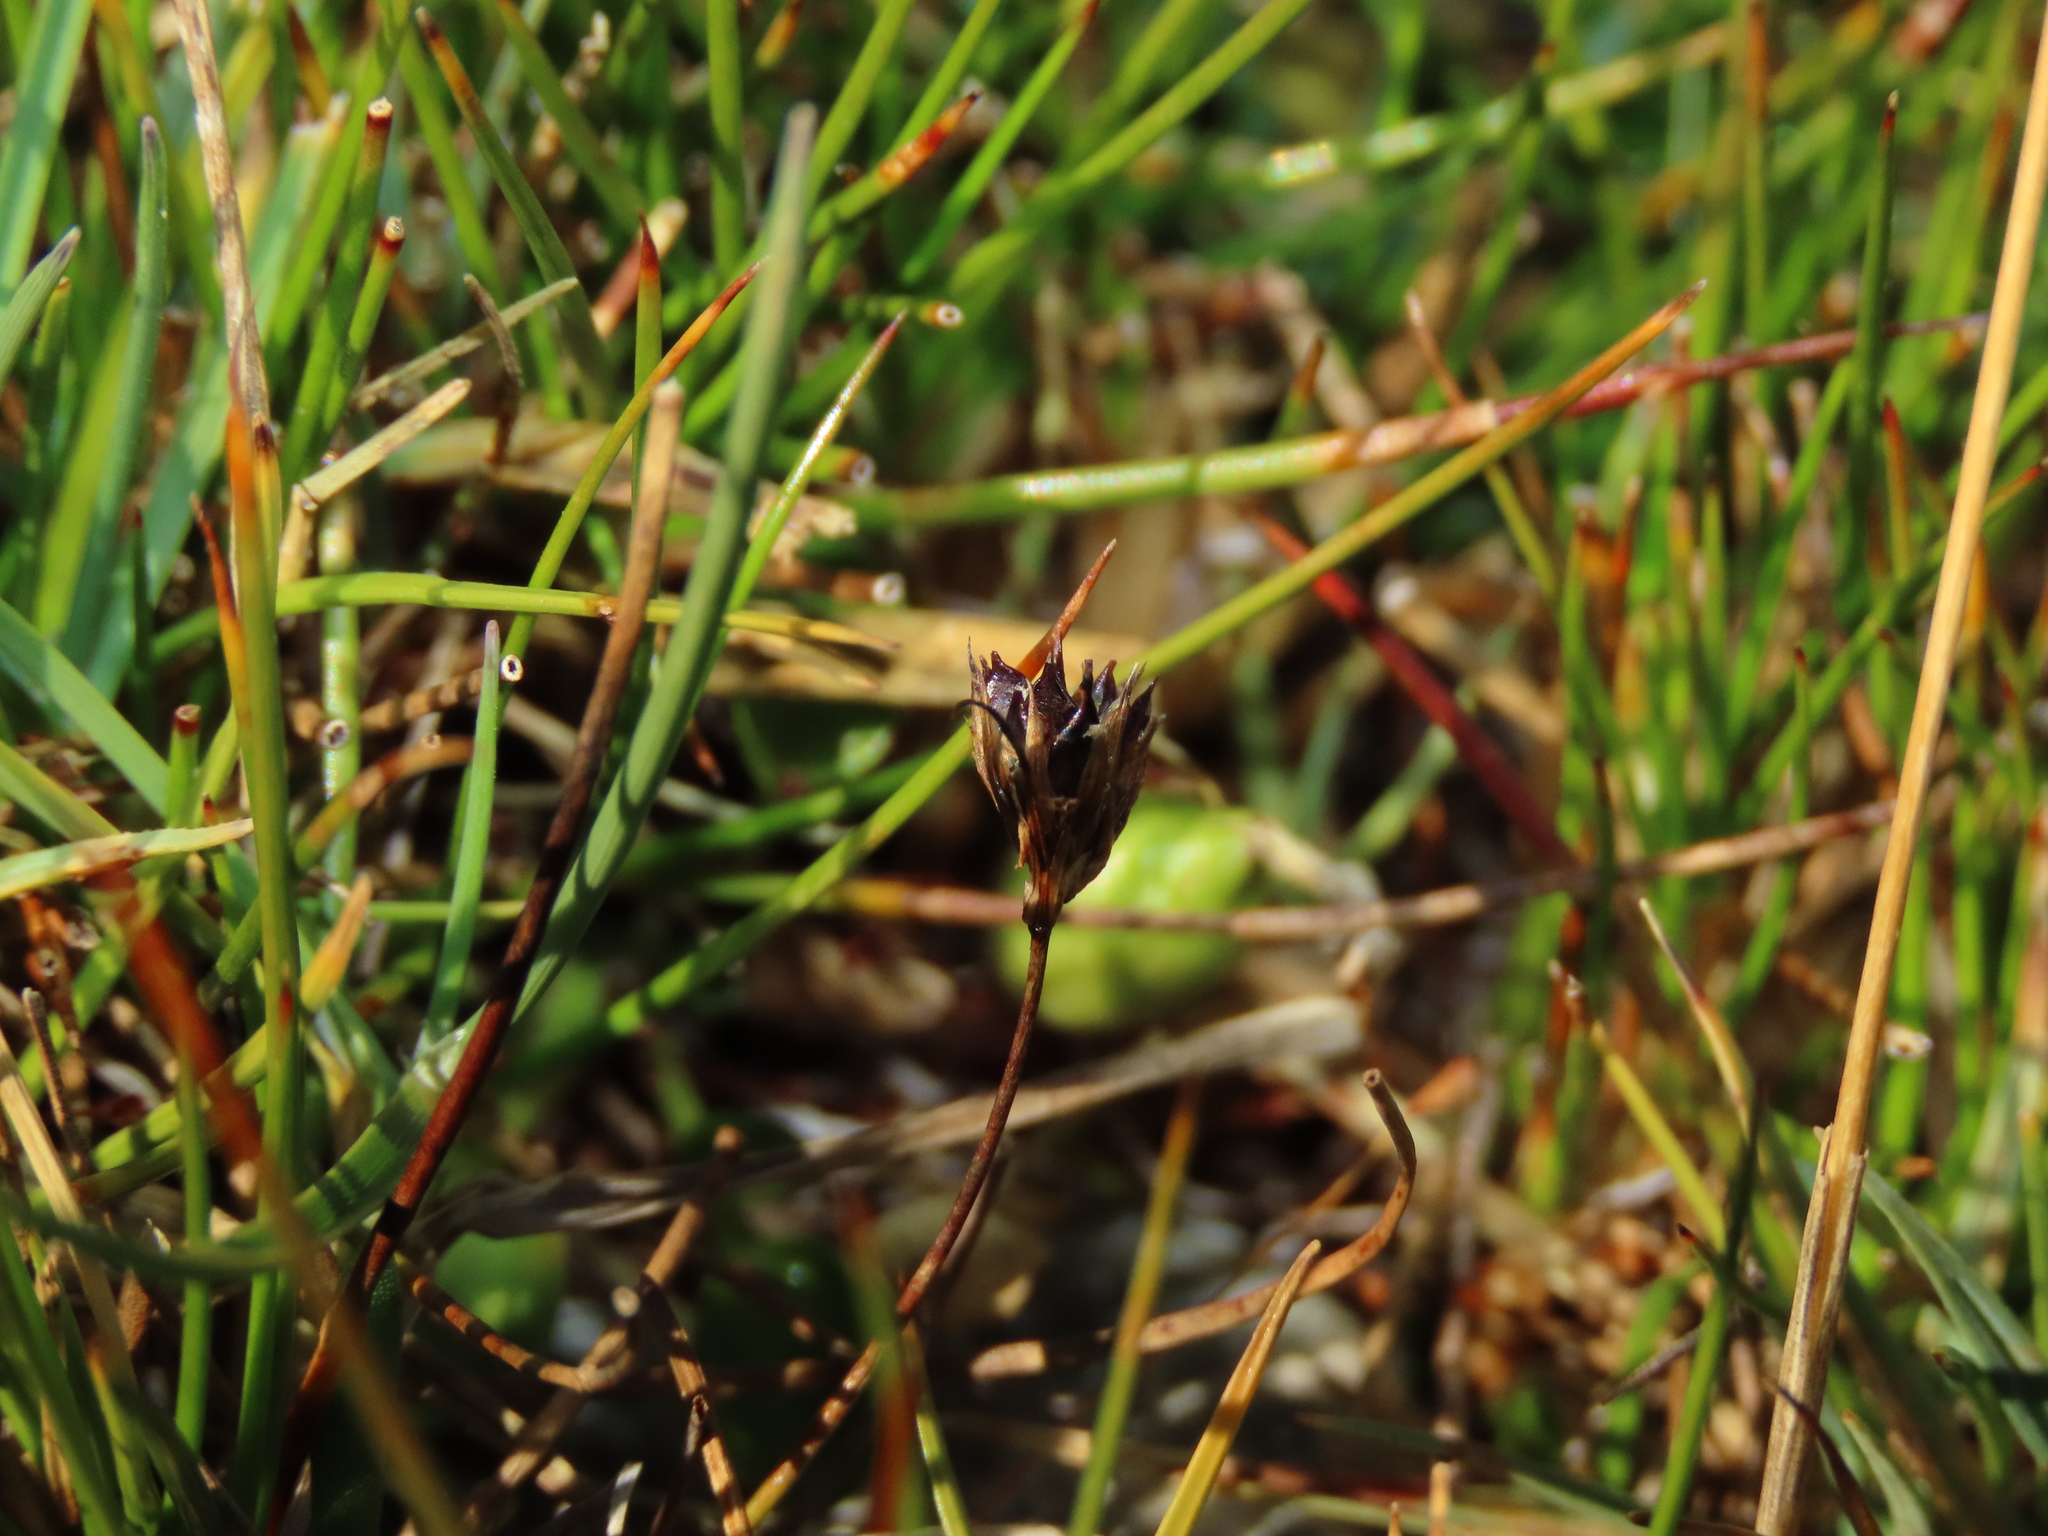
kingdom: Plantae
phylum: Tracheophyta
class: Liliopsida
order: Poales
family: Juncaceae
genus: Juncus
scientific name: Juncus bufonius
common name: Toad rush
